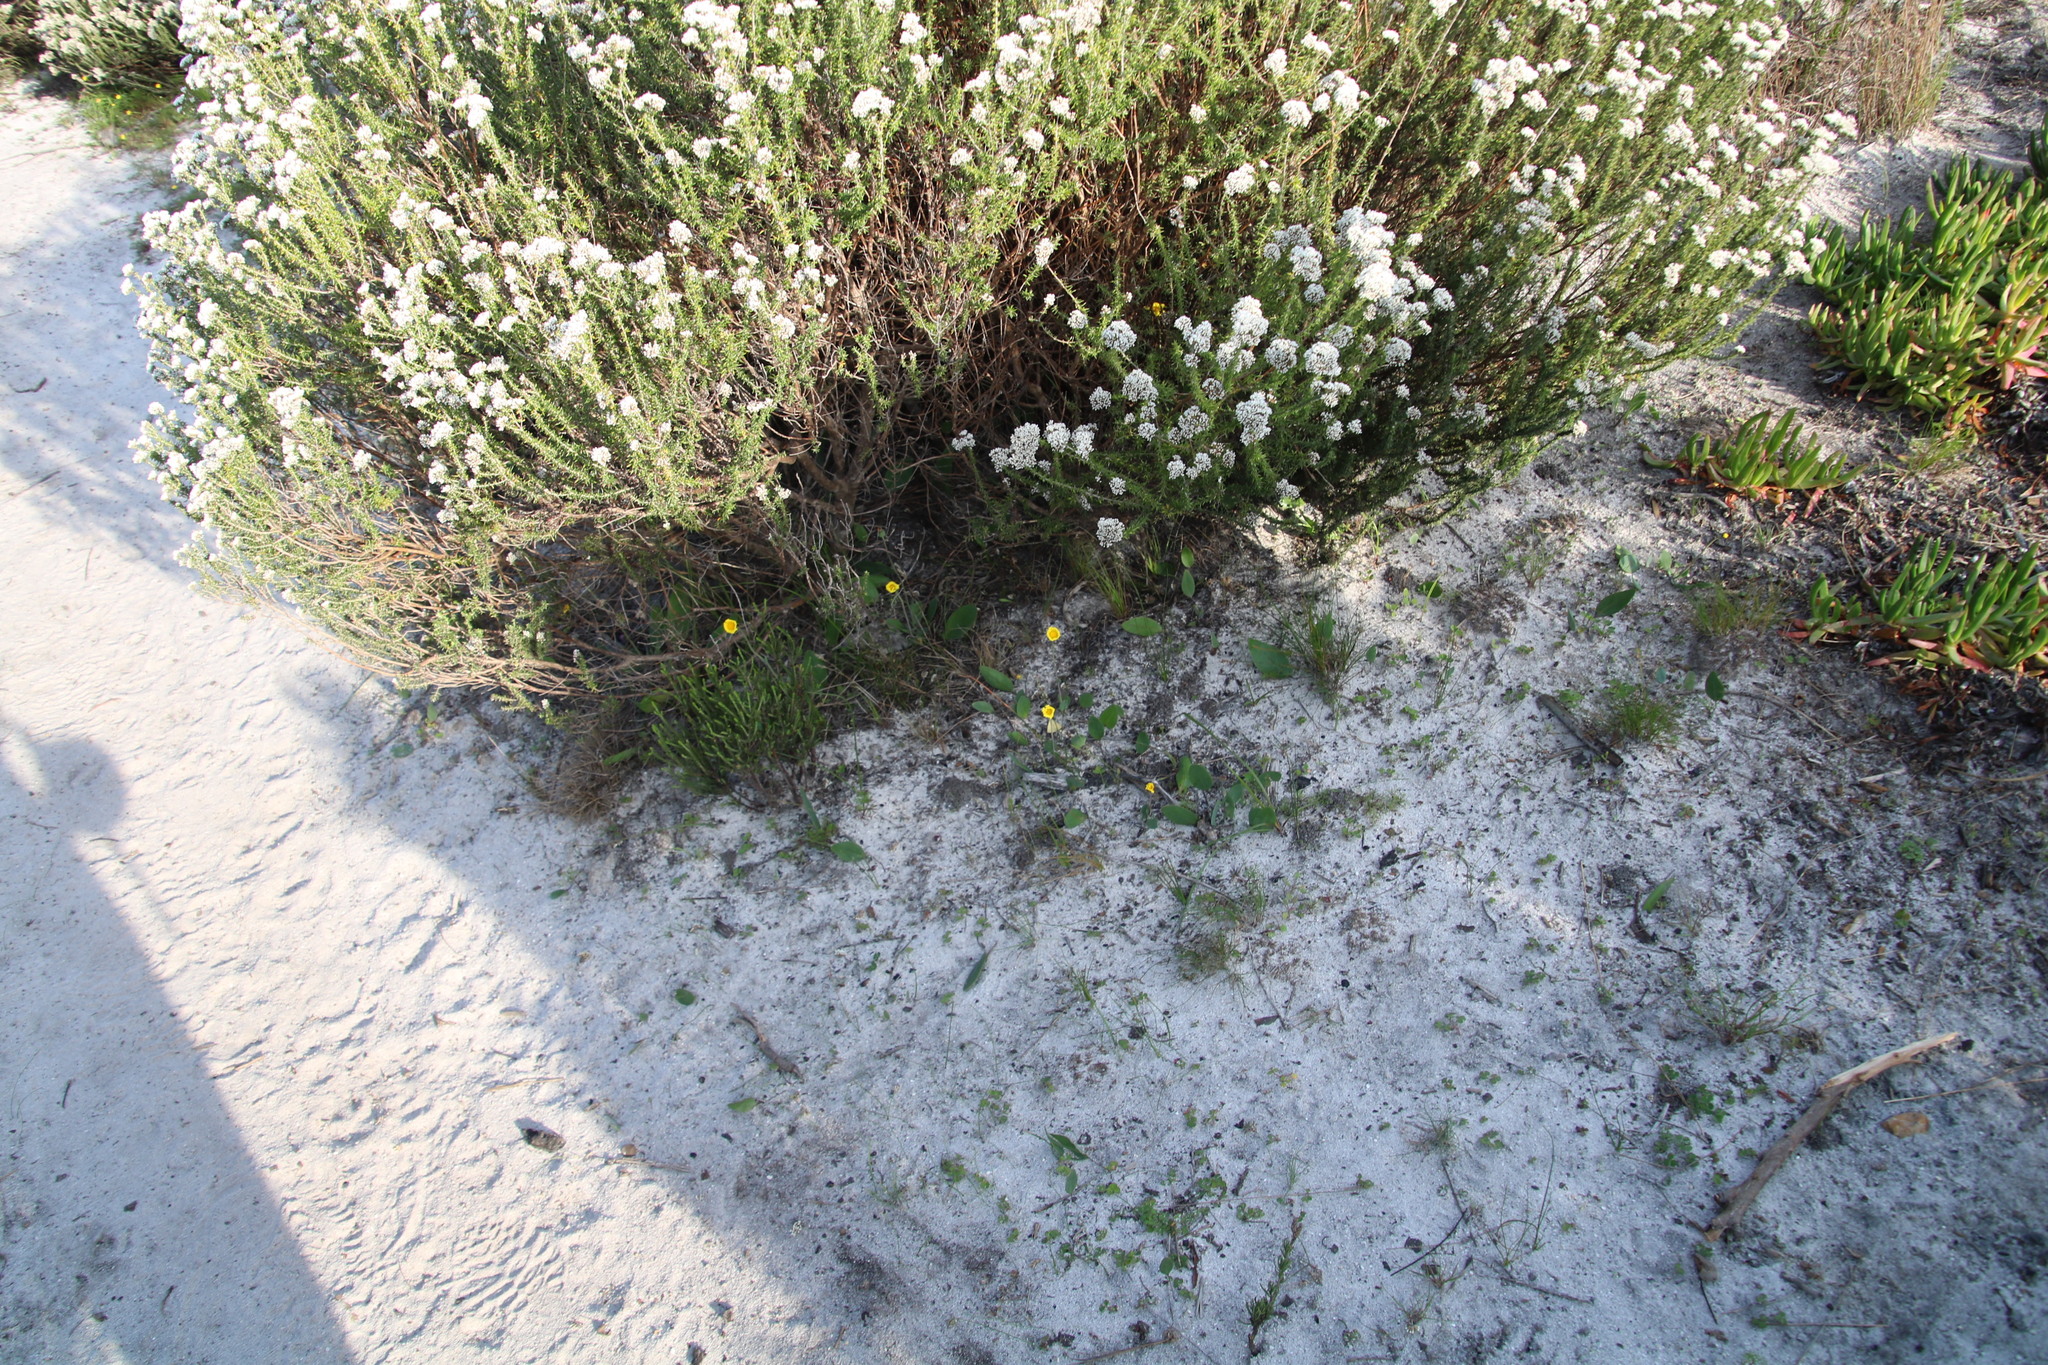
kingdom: Plantae
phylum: Tracheophyta
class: Magnoliopsida
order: Asterales
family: Asteraceae
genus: Othonna
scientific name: Othonna bulbosa
